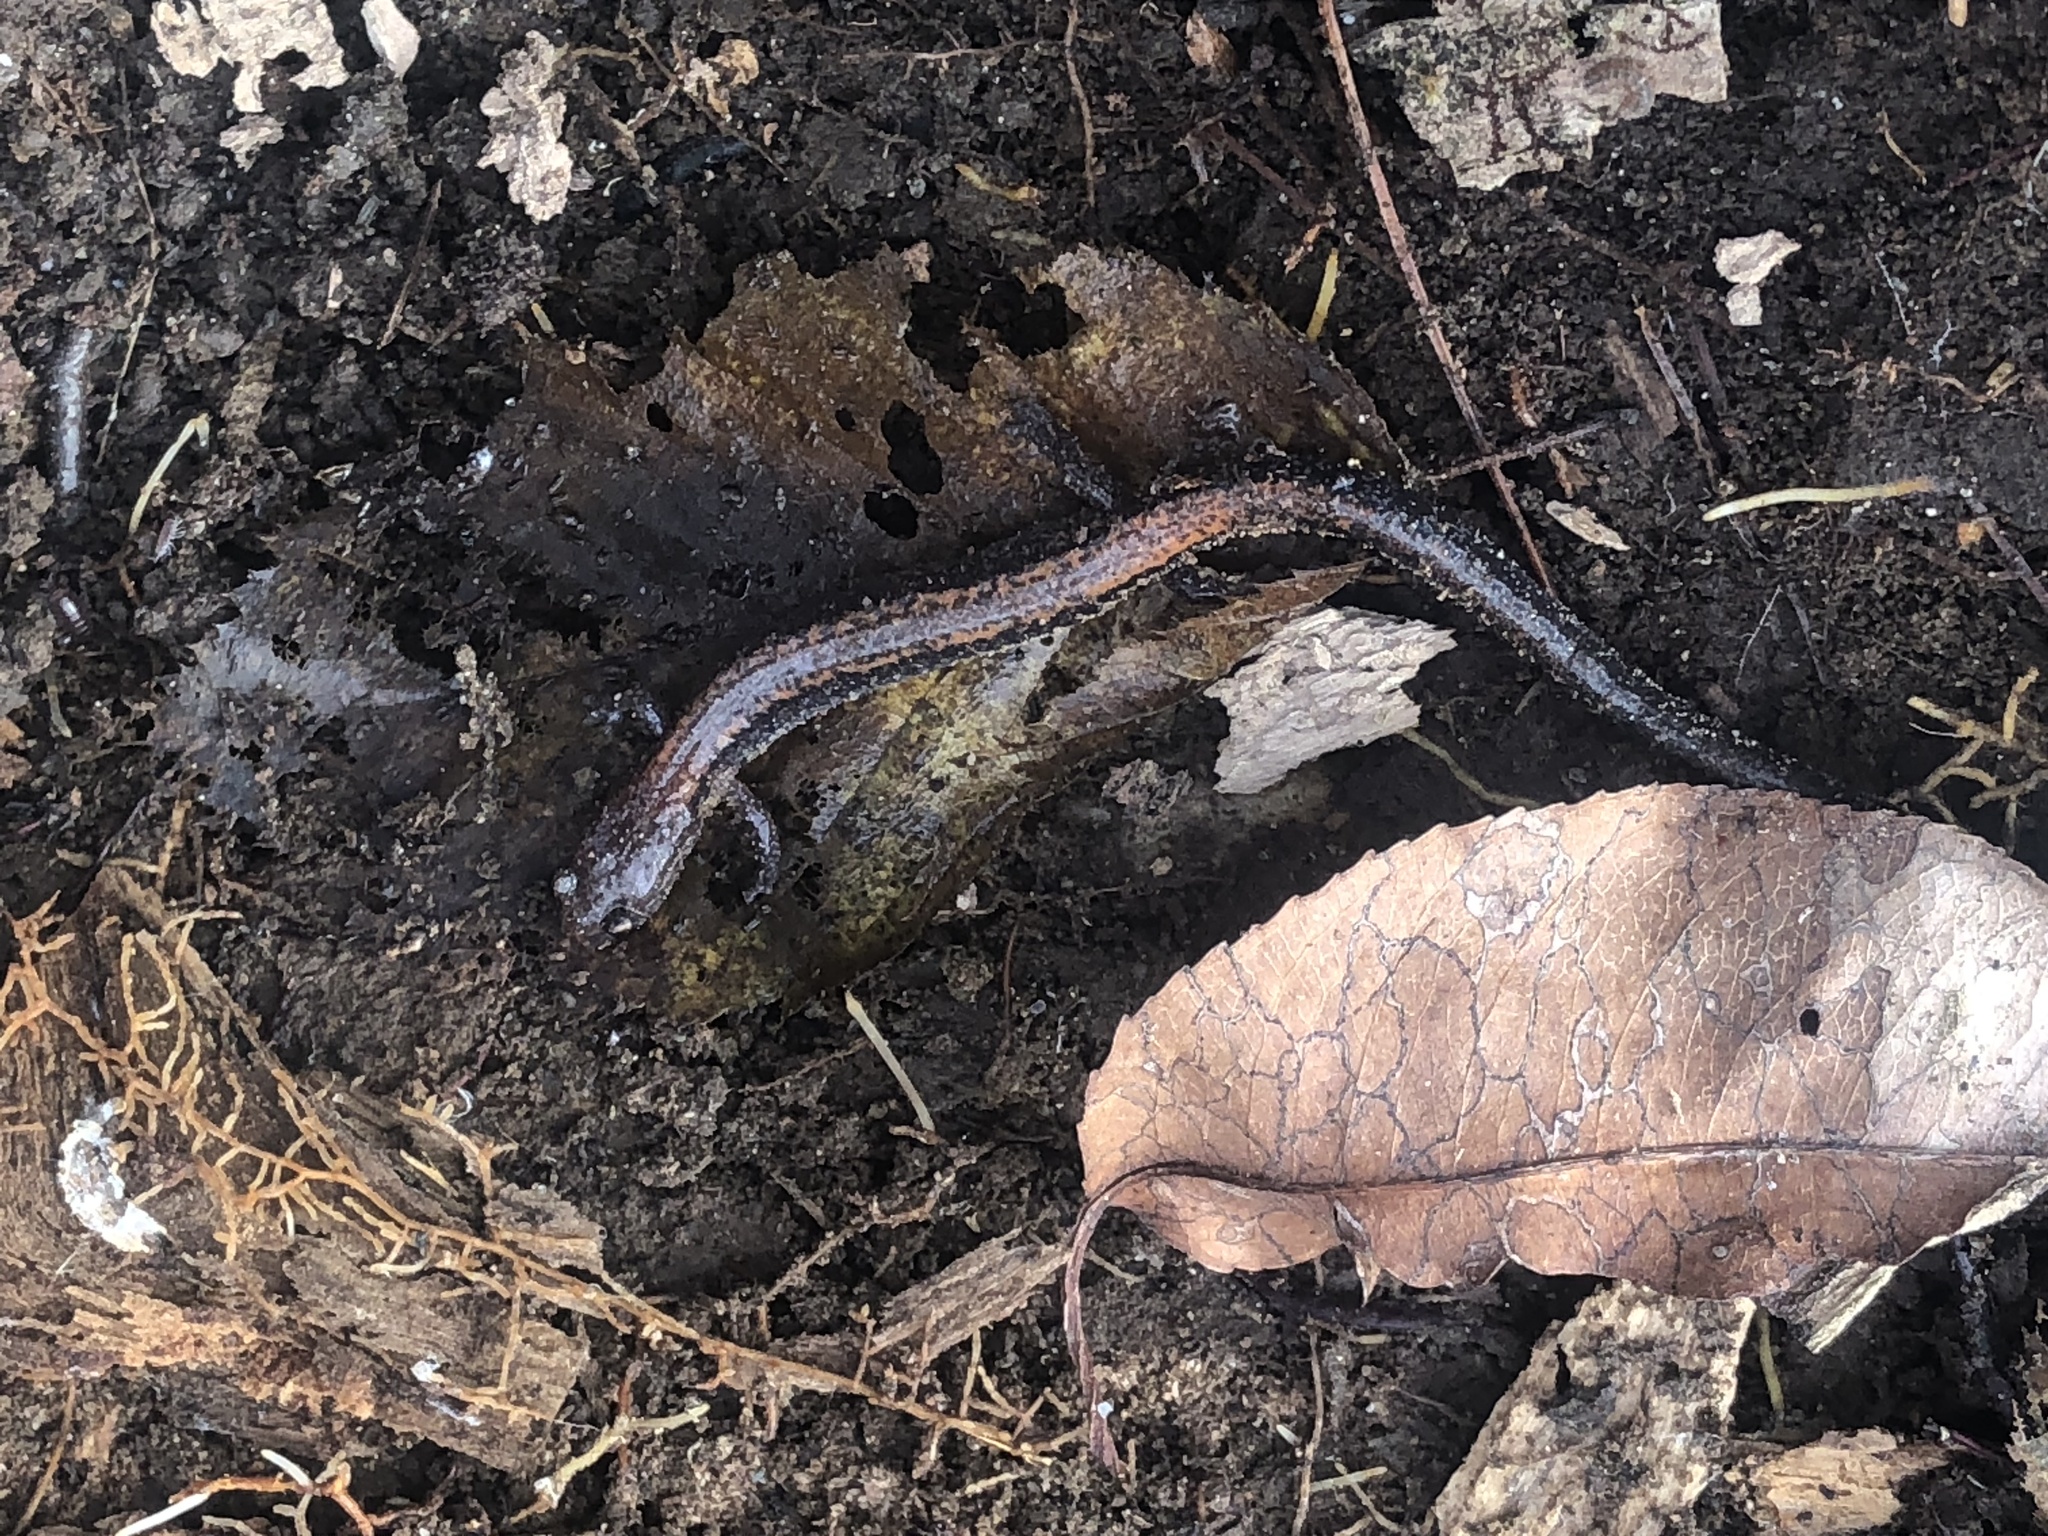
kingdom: Animalia
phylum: Chordata
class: Amphibia
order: Caudata
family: Plethodontidae
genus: Plethodon
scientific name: Plethodon cinereus
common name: Redback salamander
